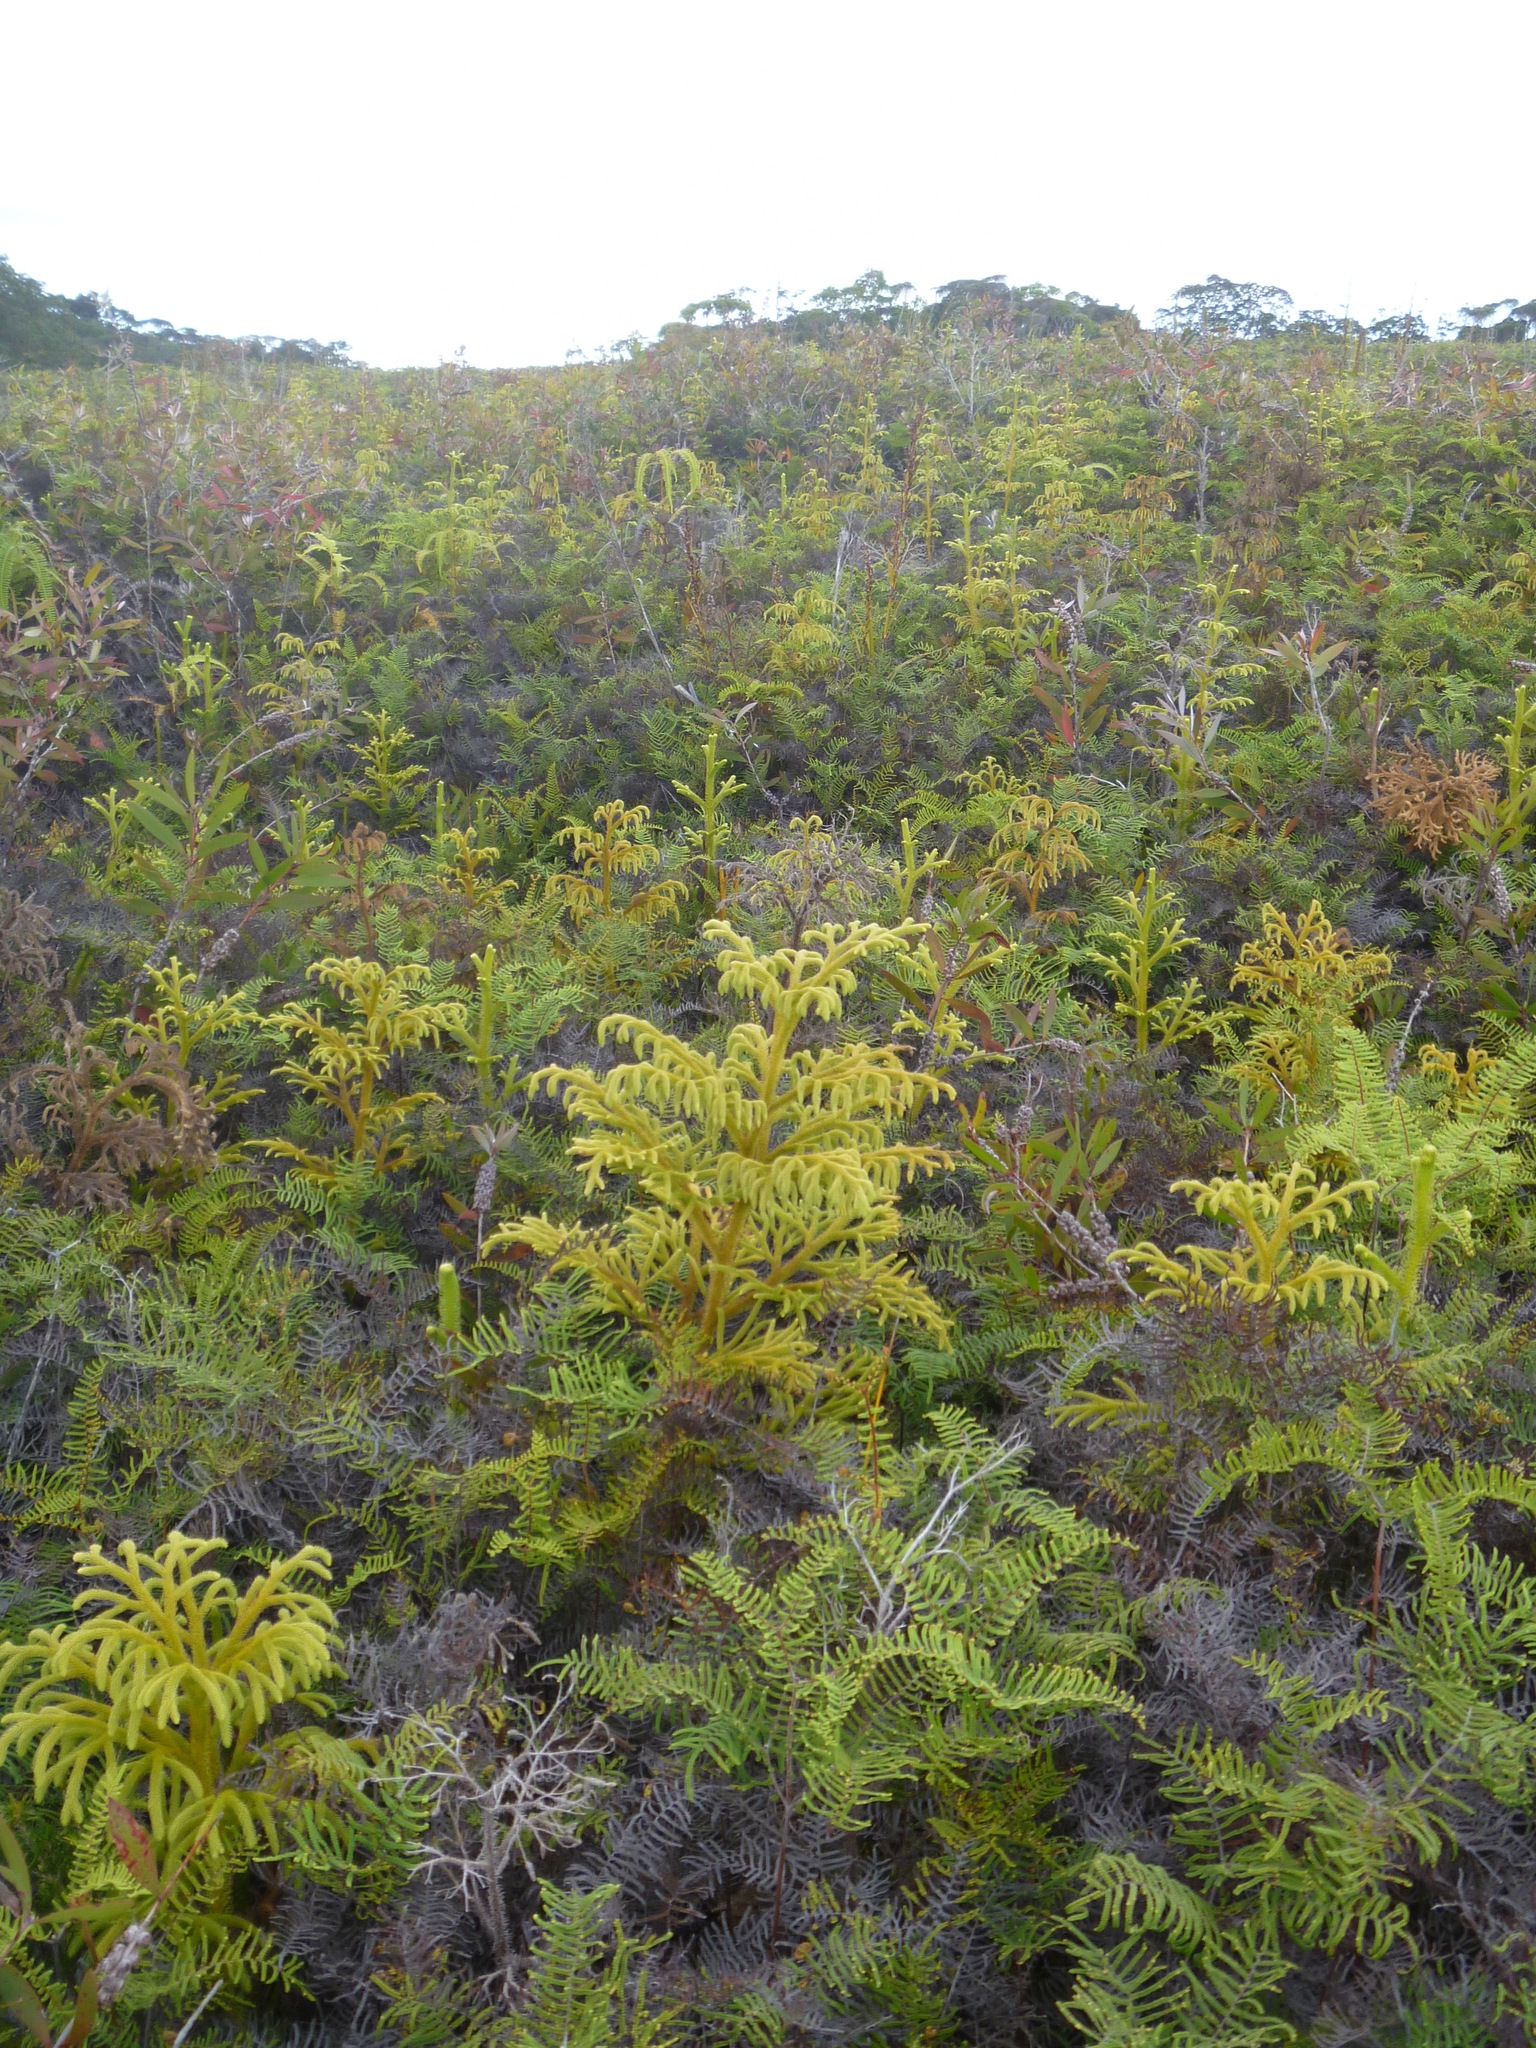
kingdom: Plantae
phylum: Tracheophyta
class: Lycopodiopsida
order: Lycopodiales
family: Lycopodiaceae
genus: Palhinhaea
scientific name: Palhinhaea cernua
